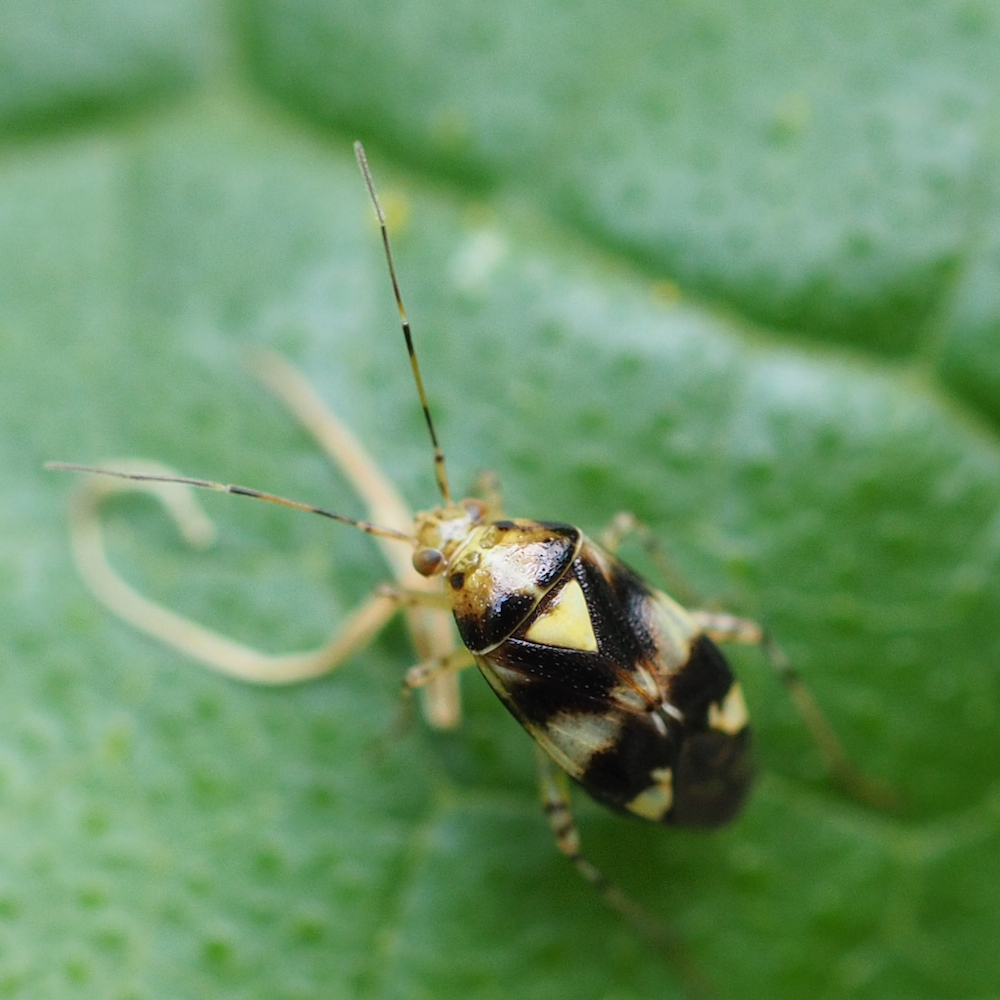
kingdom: Animalia
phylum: Arthropoda
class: Insecta
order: Hemiptera
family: Miridae
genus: Liocoris
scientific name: Liocoris tripustulatus
